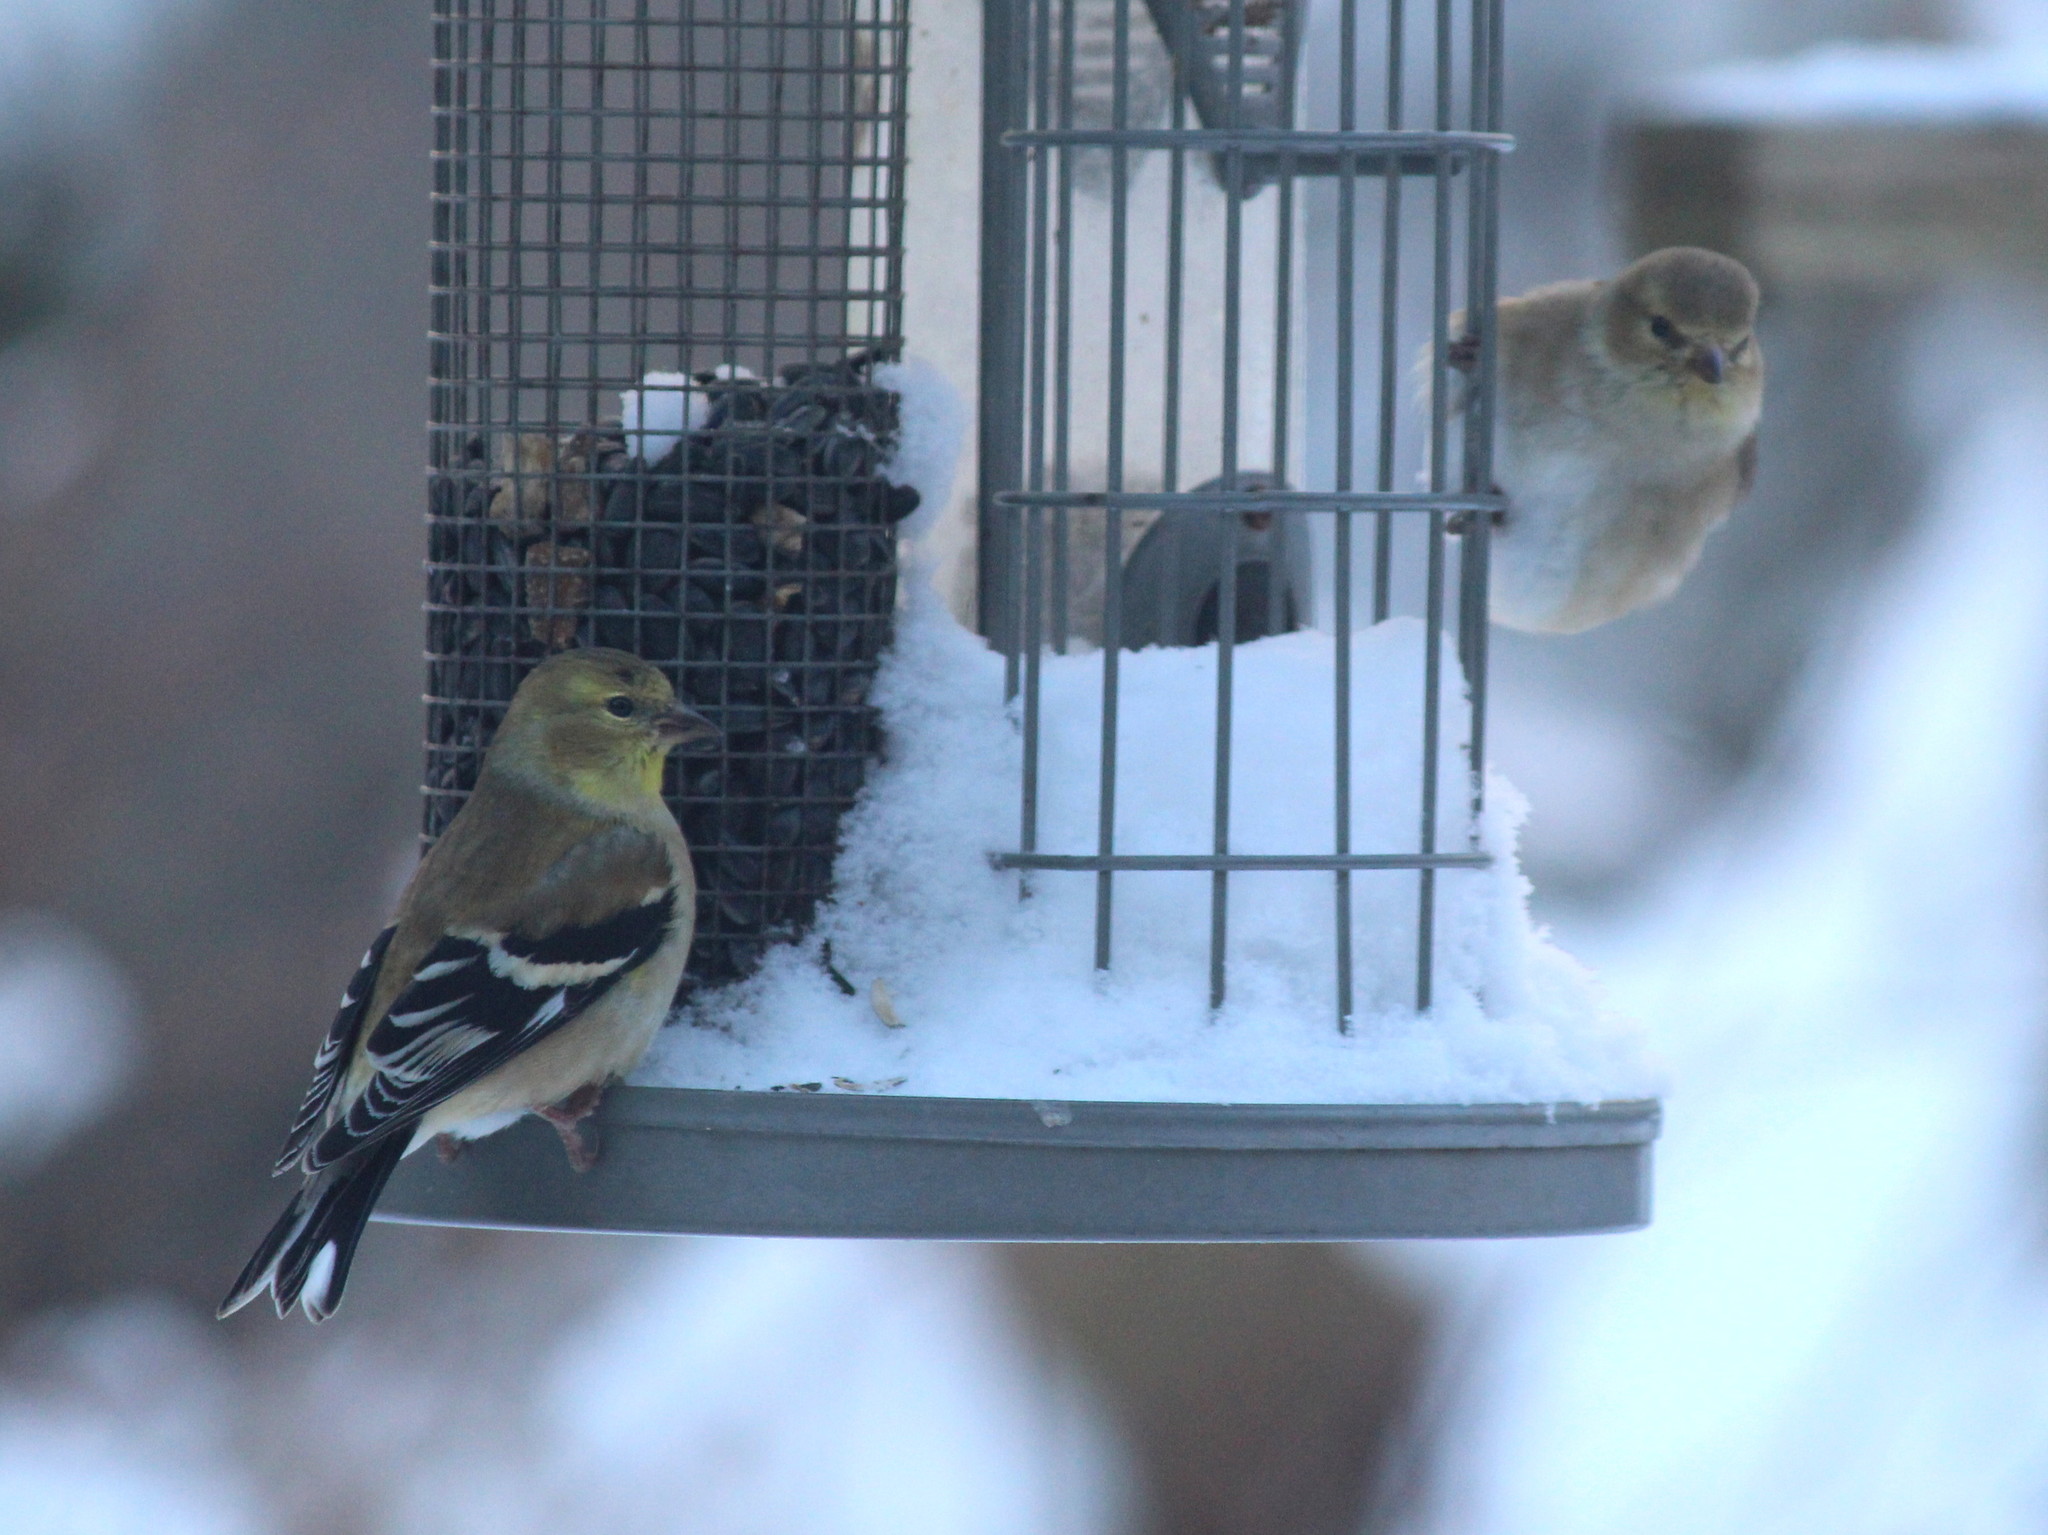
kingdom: Animalia
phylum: Chordata
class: Aves
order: Passeriformes
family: Fringillidae
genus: Spinus
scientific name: Spinus tristis
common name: American goldfinch
